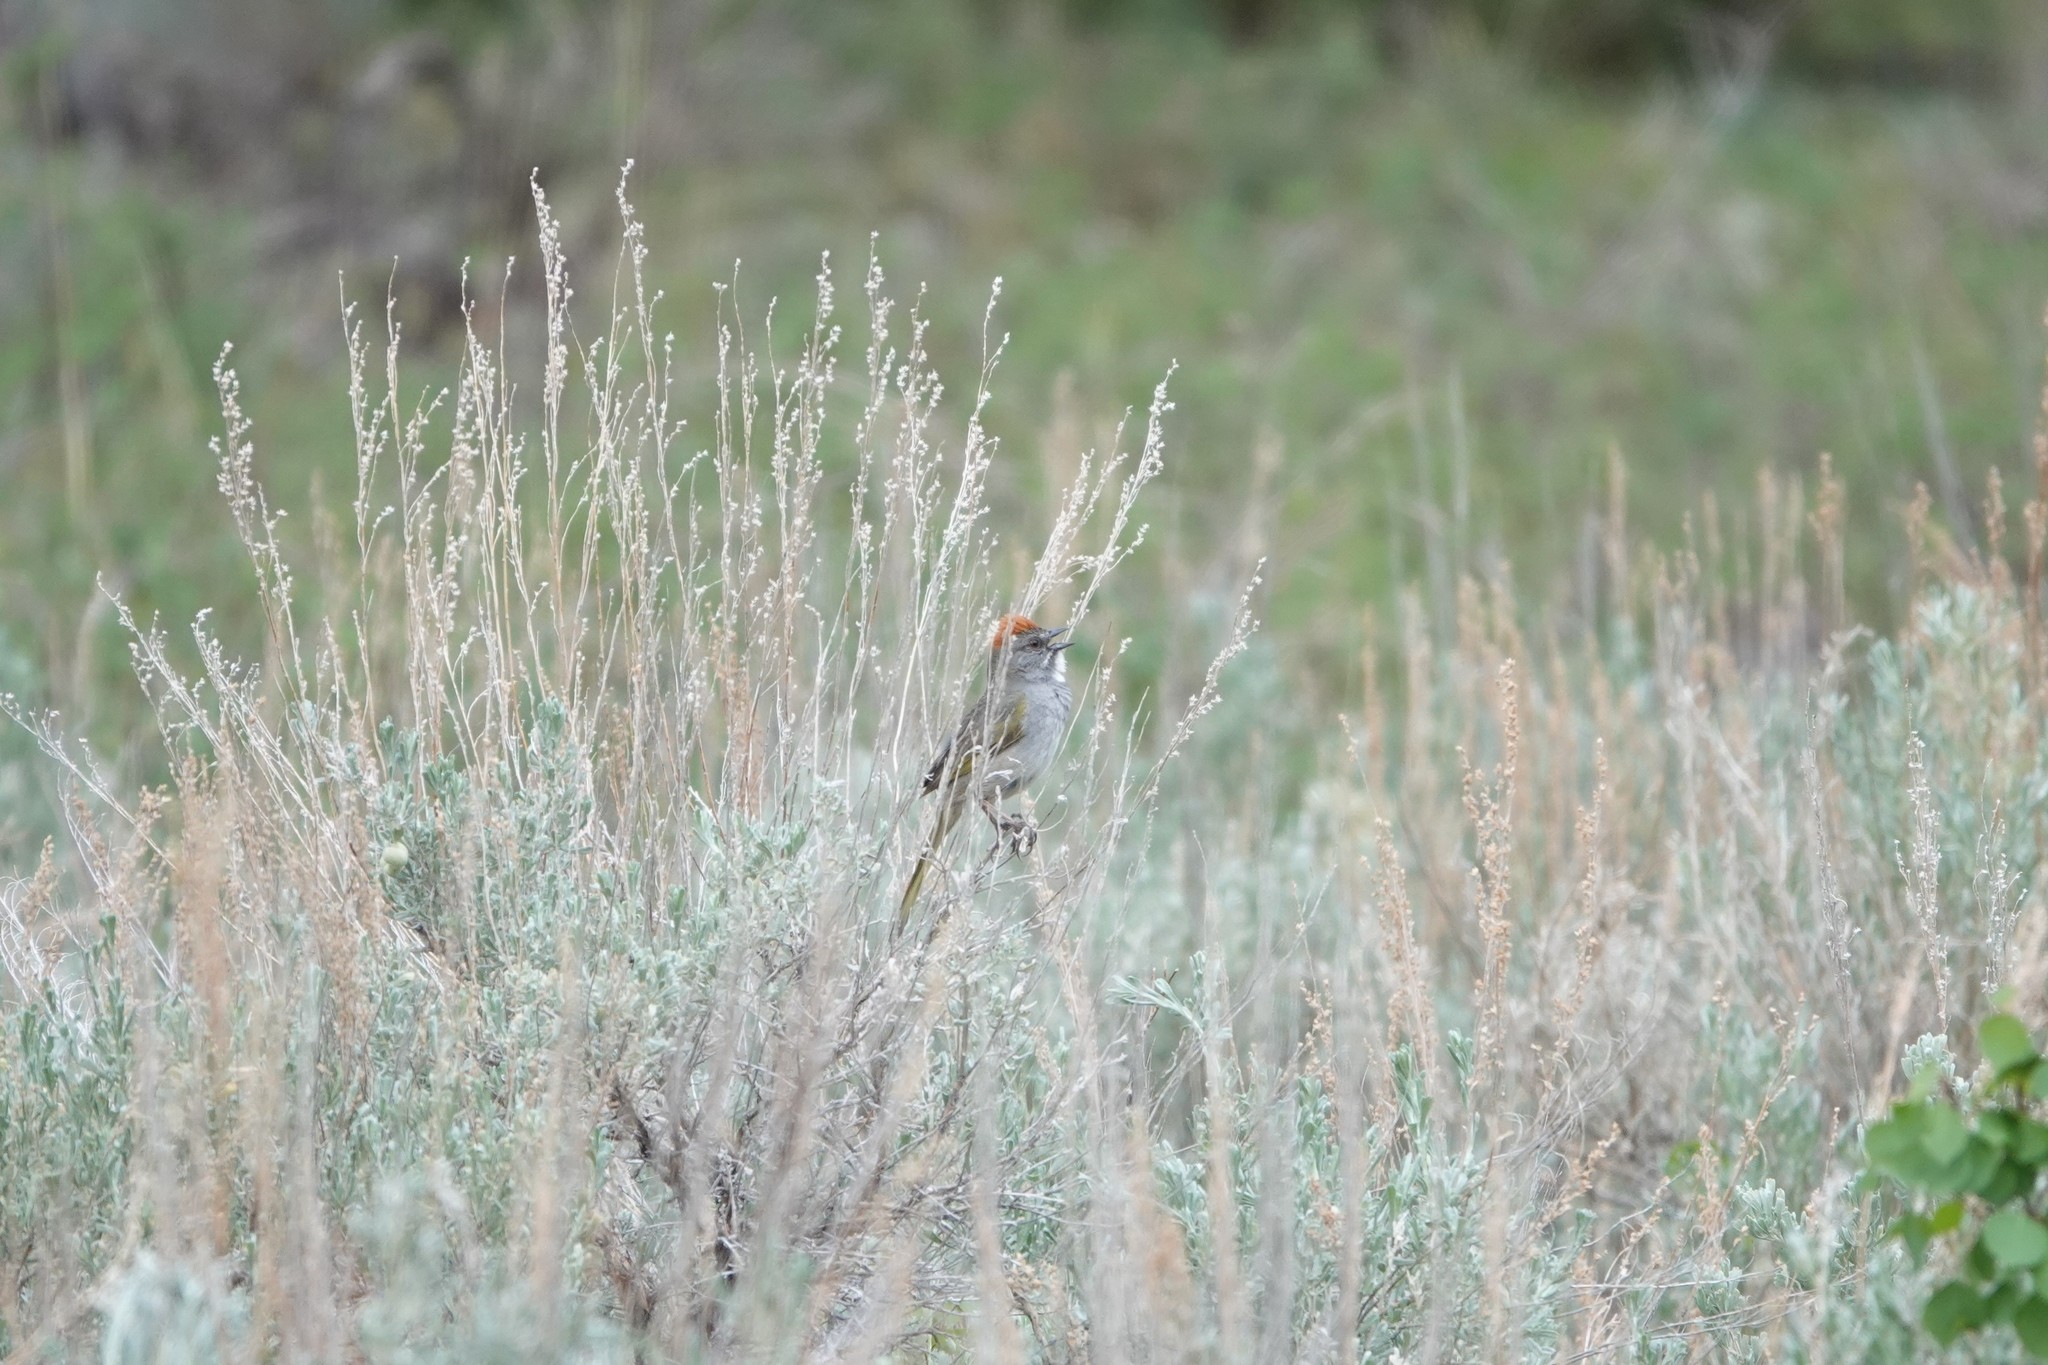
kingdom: Animalia
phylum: Chordata
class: Aves
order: Passeriformes
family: Passerellidae
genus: Pipilo
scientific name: Pipilo chlorurus
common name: Green-tailed towhee
